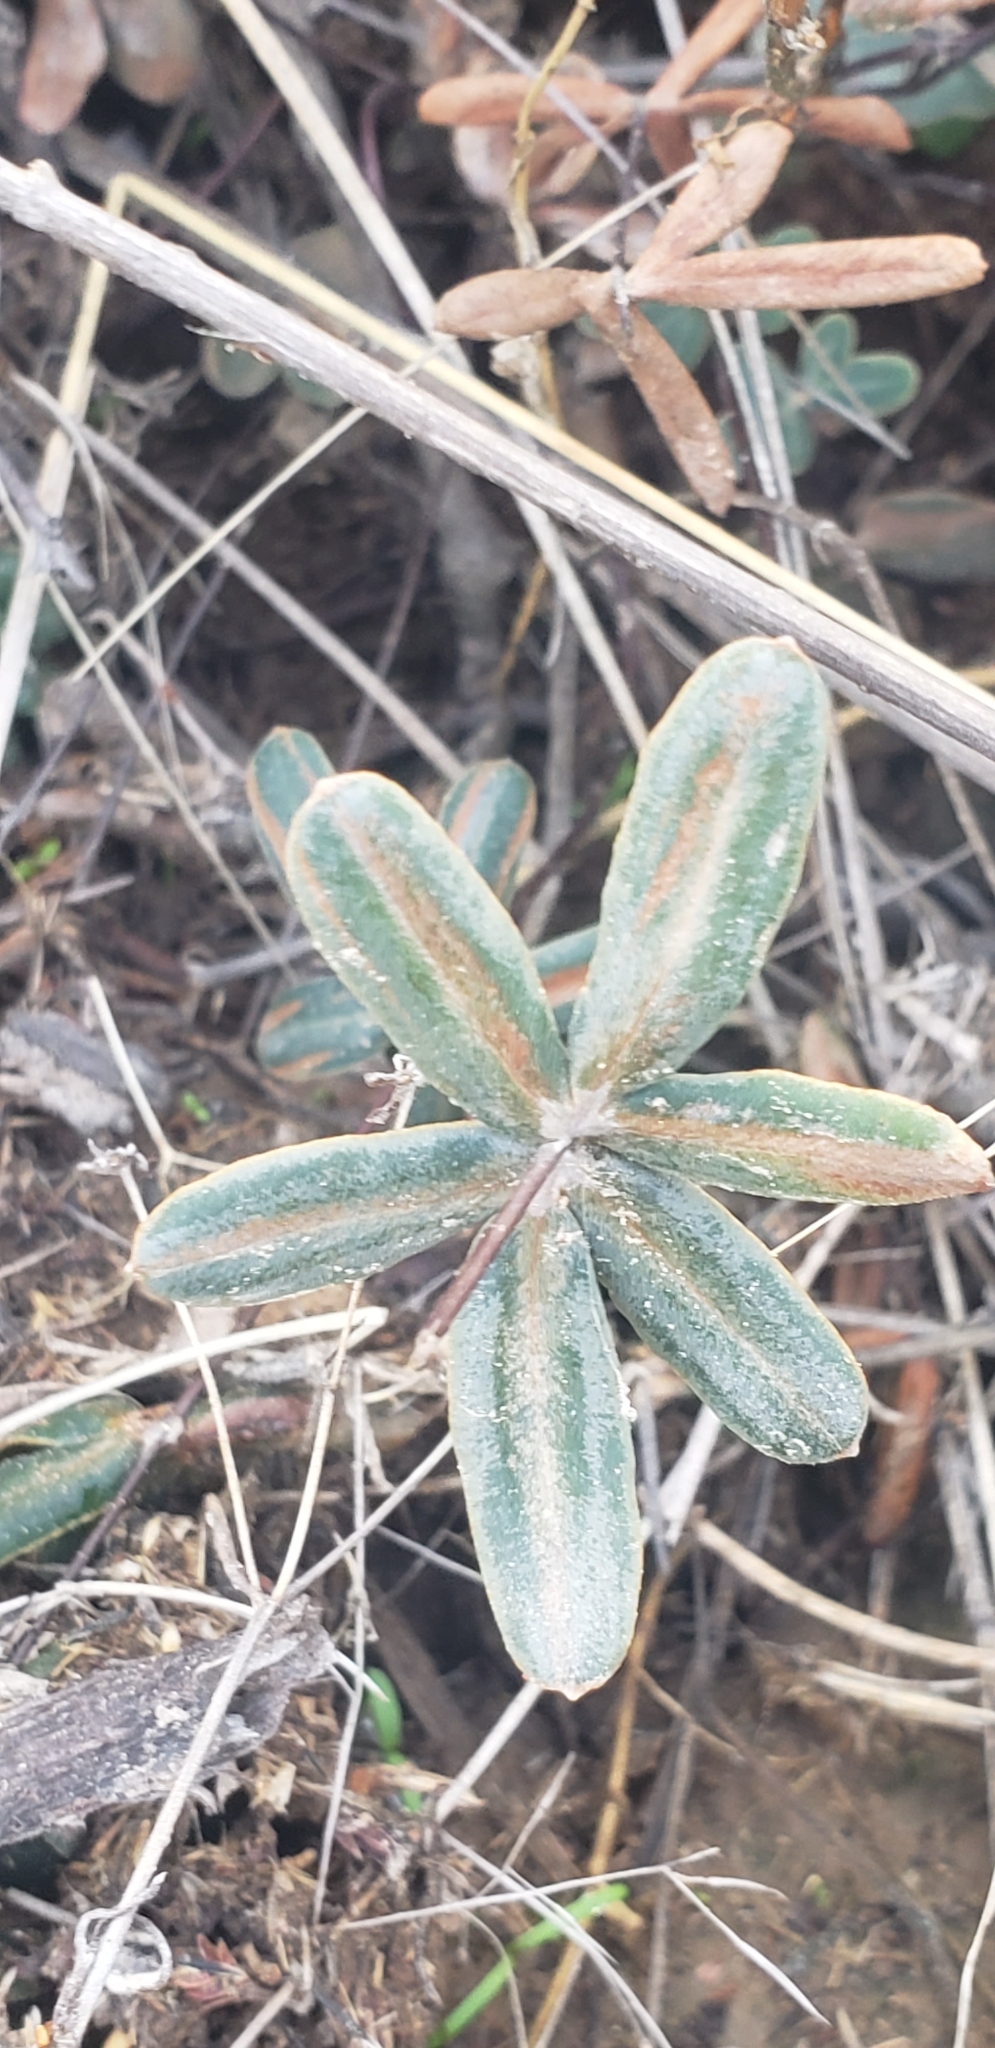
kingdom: Plantae
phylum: Tracheophyta
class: Polypodiopsida
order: Polypodiales
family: Pteridaceae
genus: Pellaea
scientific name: Pellaea ternifolia
